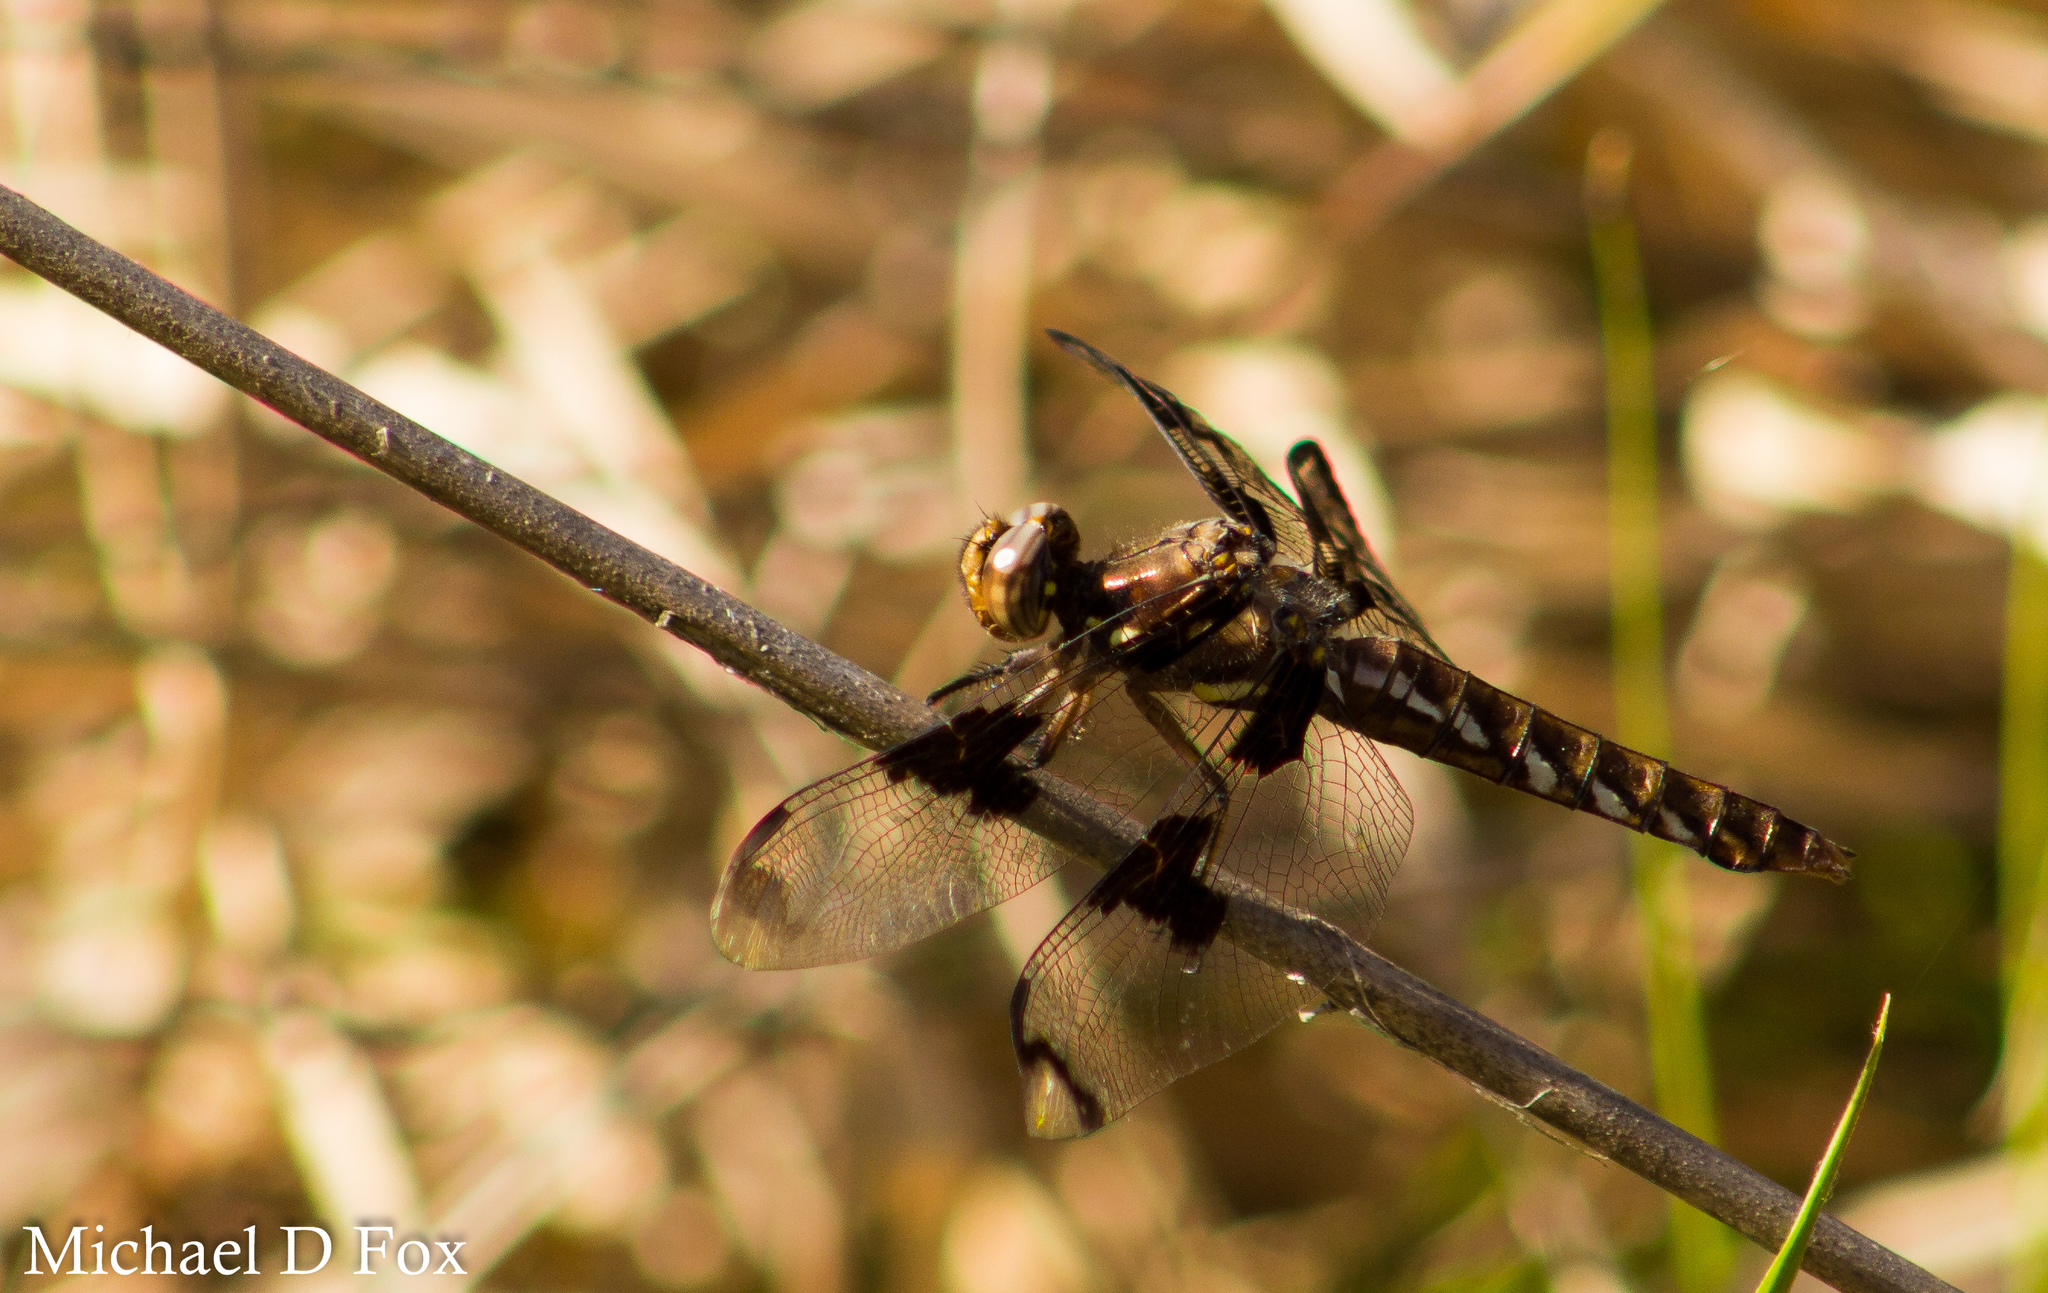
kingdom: Animalia
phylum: Arthropoda
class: Insecta
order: Odonata
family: Libellulidae
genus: Plathemis
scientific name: Plathemis lydia
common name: Common whitetail
